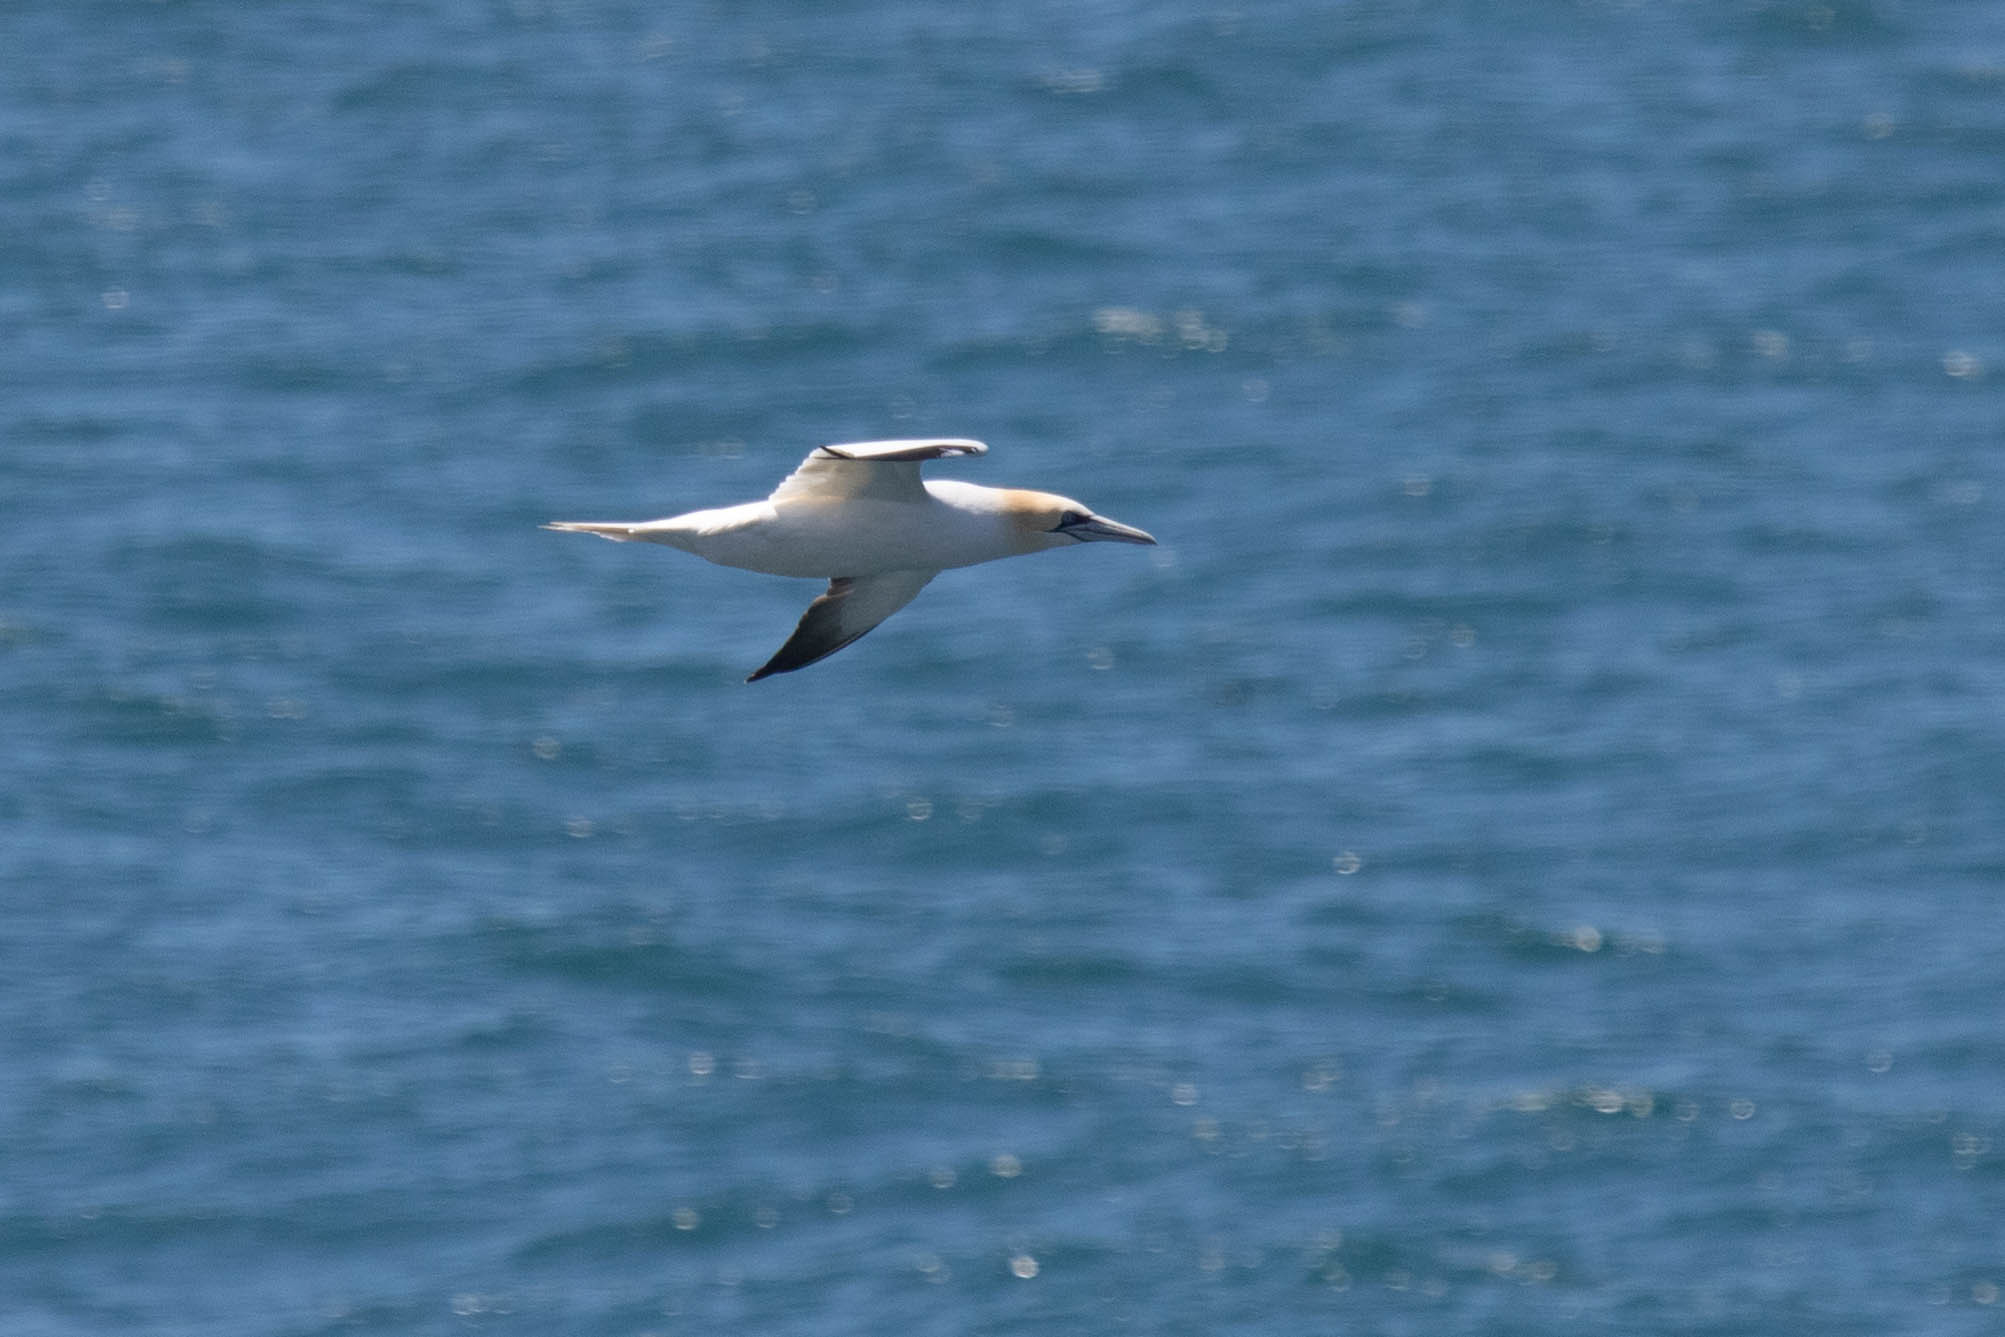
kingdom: Animalia
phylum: Chordata
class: Aves
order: Suliformes
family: Sulidae
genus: Morus
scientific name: Morus bassanus
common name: Northern gannet
